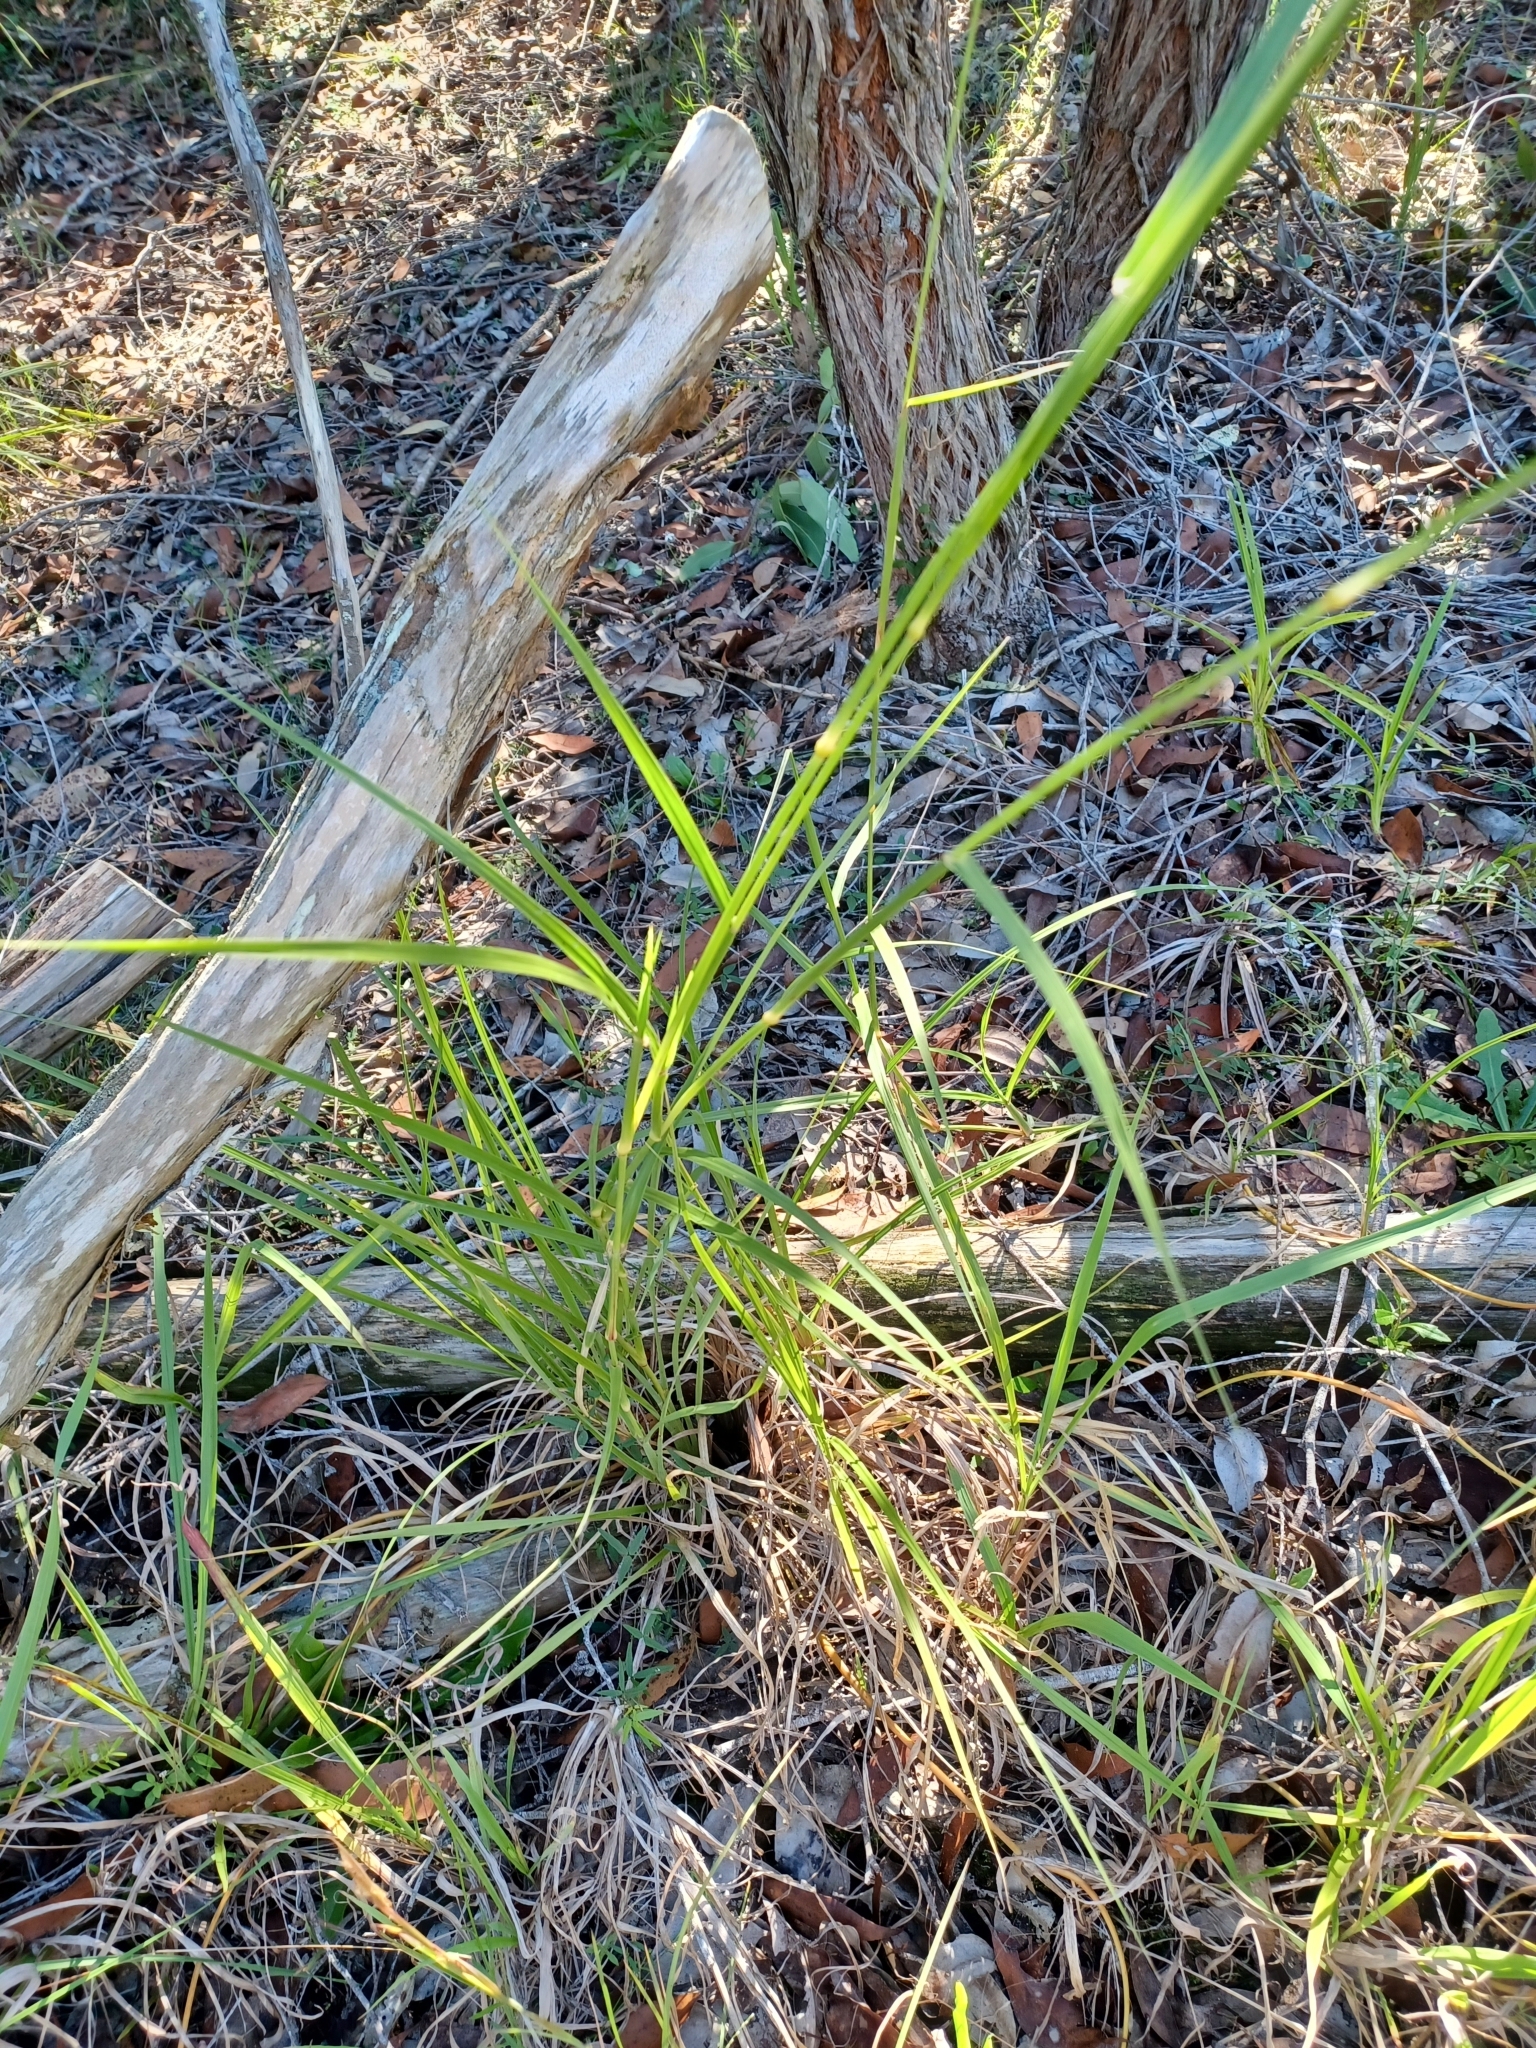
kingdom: Plantae
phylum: Tracheophyta
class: Liliopsida
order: Poales
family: Poaceae
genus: Chloris
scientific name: Chloris gayana
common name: Rhodes grass
